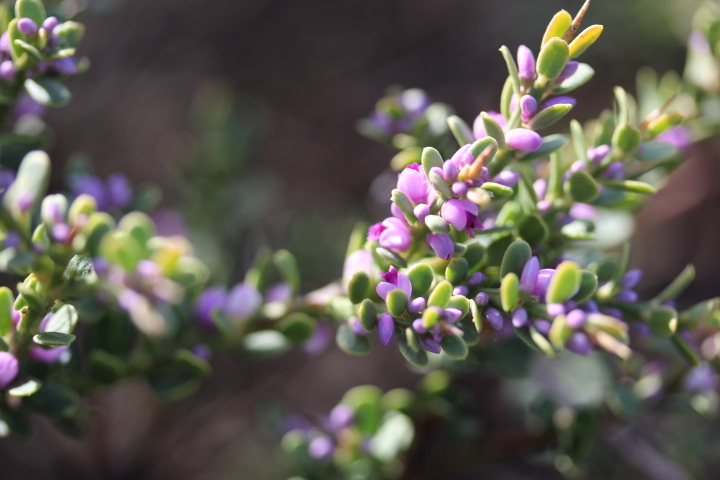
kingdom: Plantae
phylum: Tracheophyta
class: Magnoliopsida
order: Fabales
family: Polygalaceae
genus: Muraltia
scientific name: Muraltia spinosa
